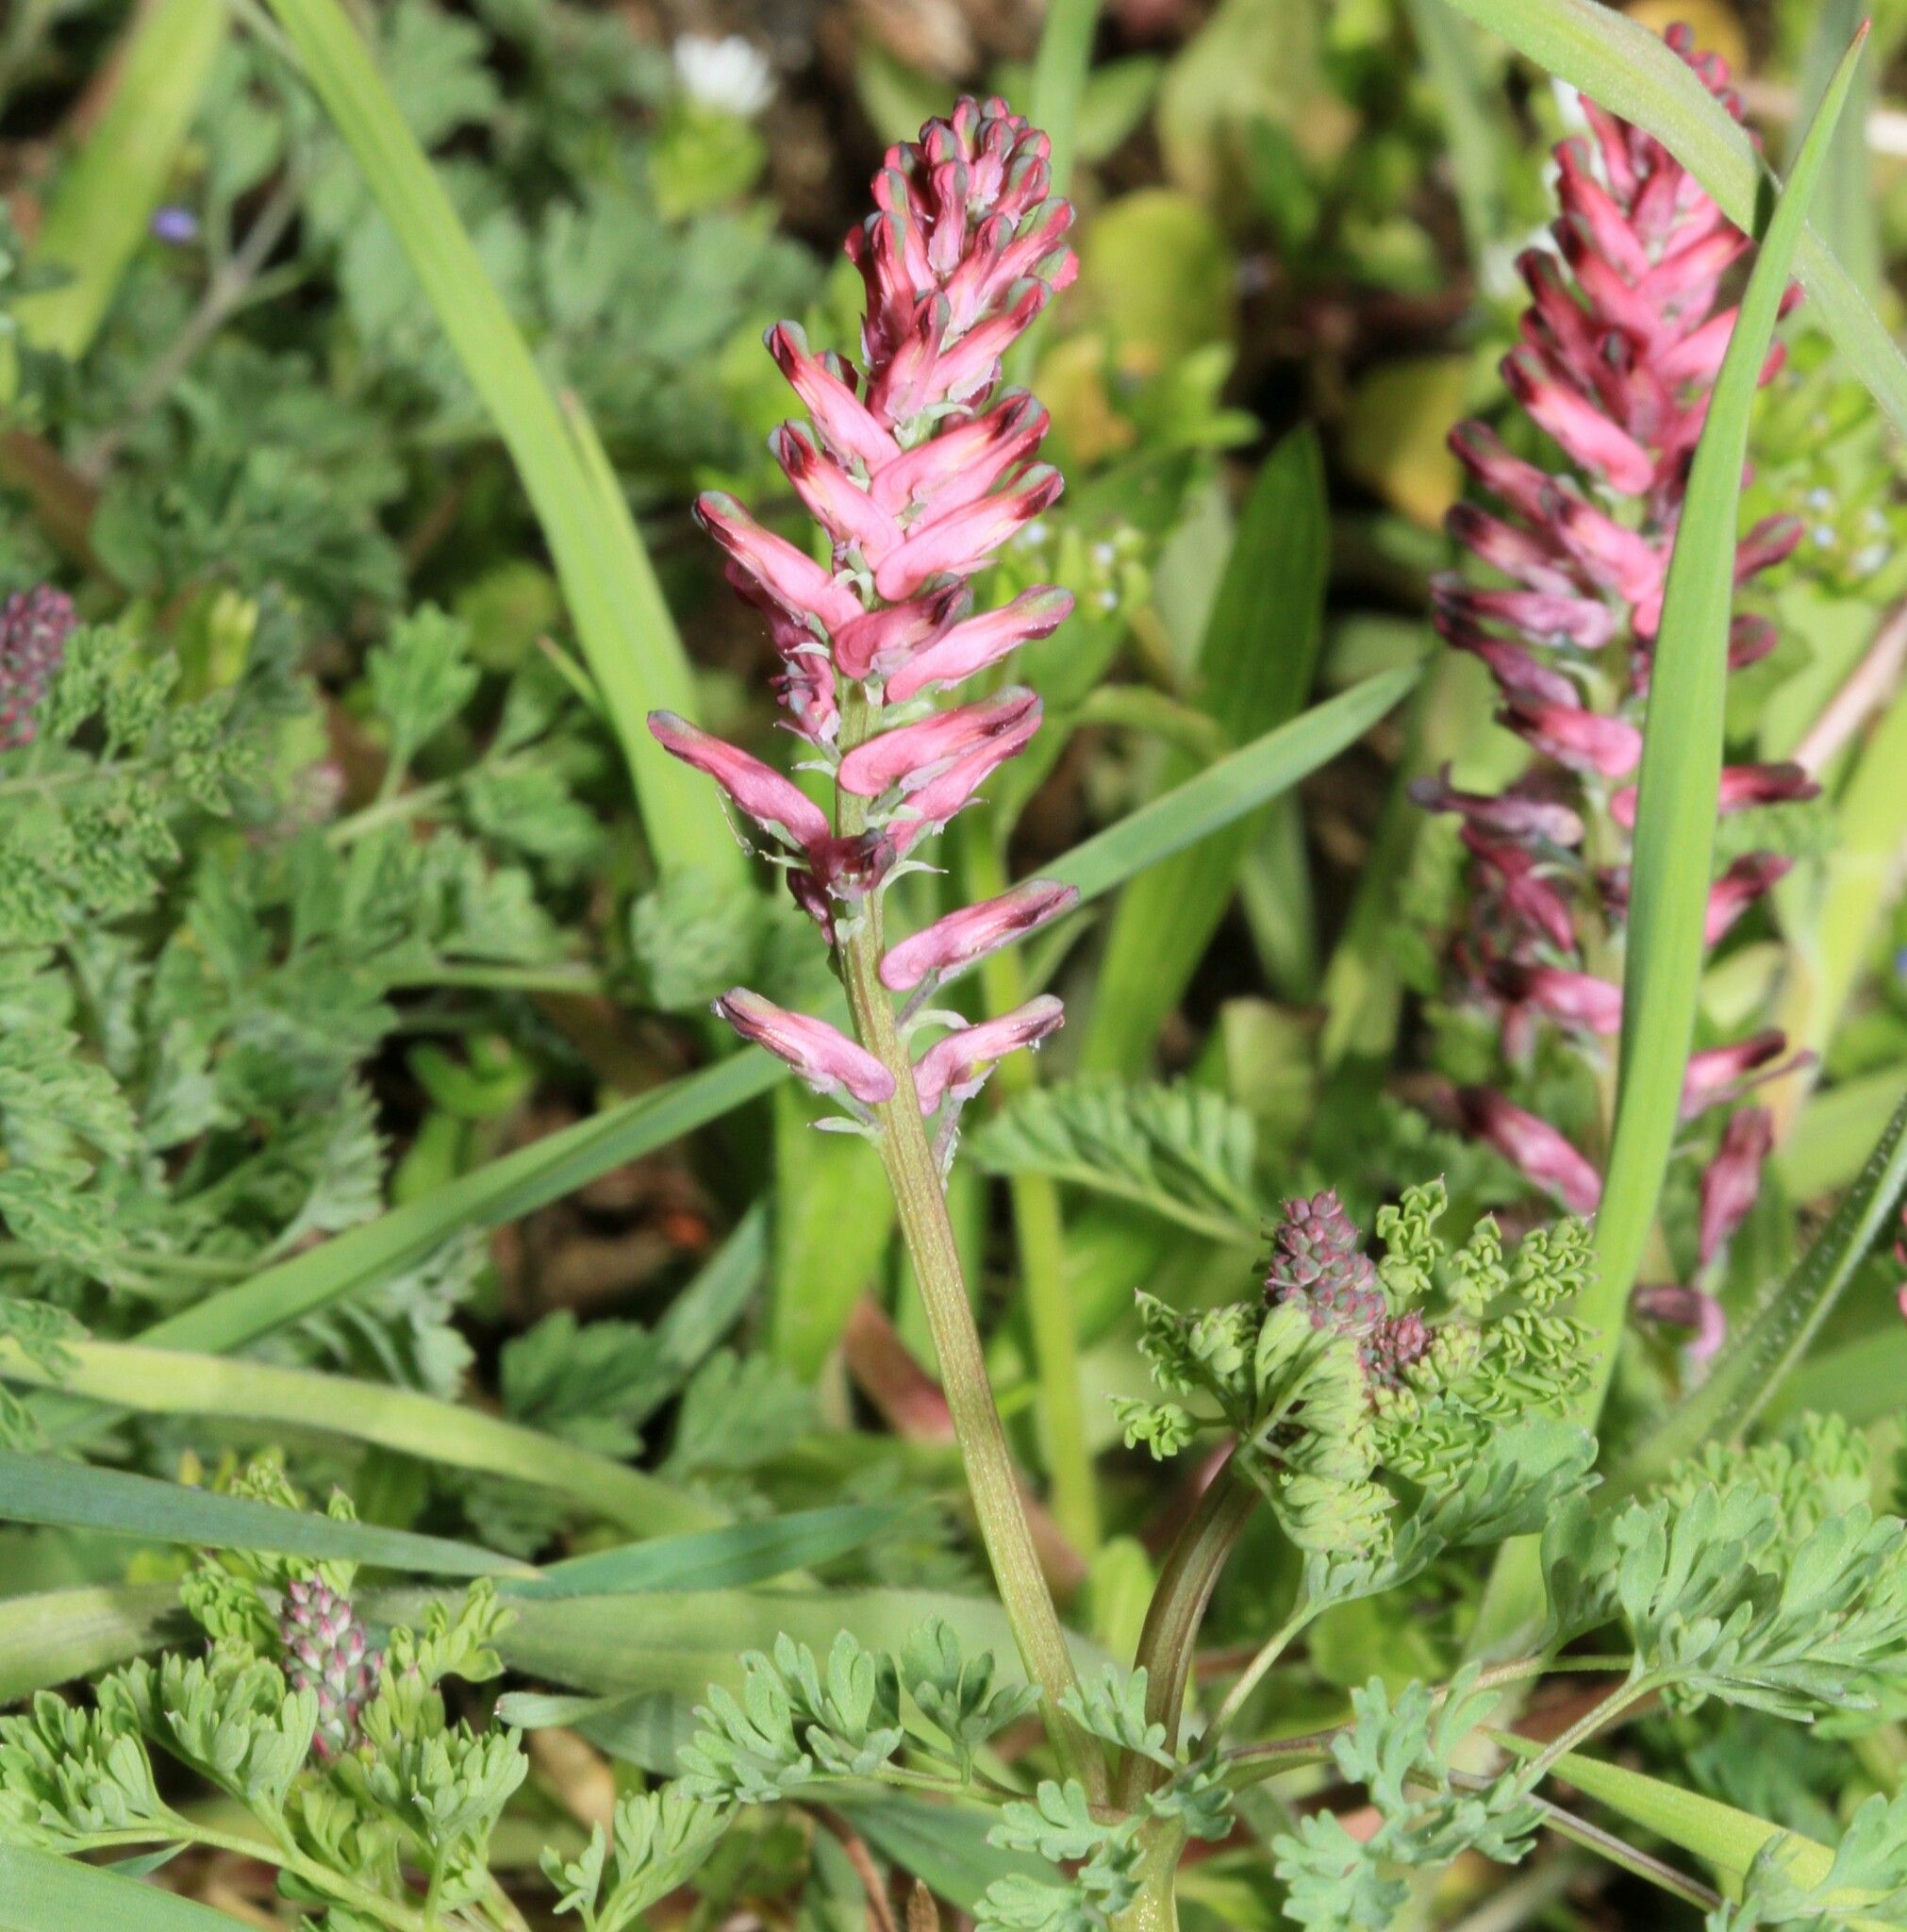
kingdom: Plantae
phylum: Tracheophyta
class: Magnoliopsida
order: Ranunculales
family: Papaveraceae
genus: Fumaria
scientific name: Fumaria officinalis
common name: Common fumitory
